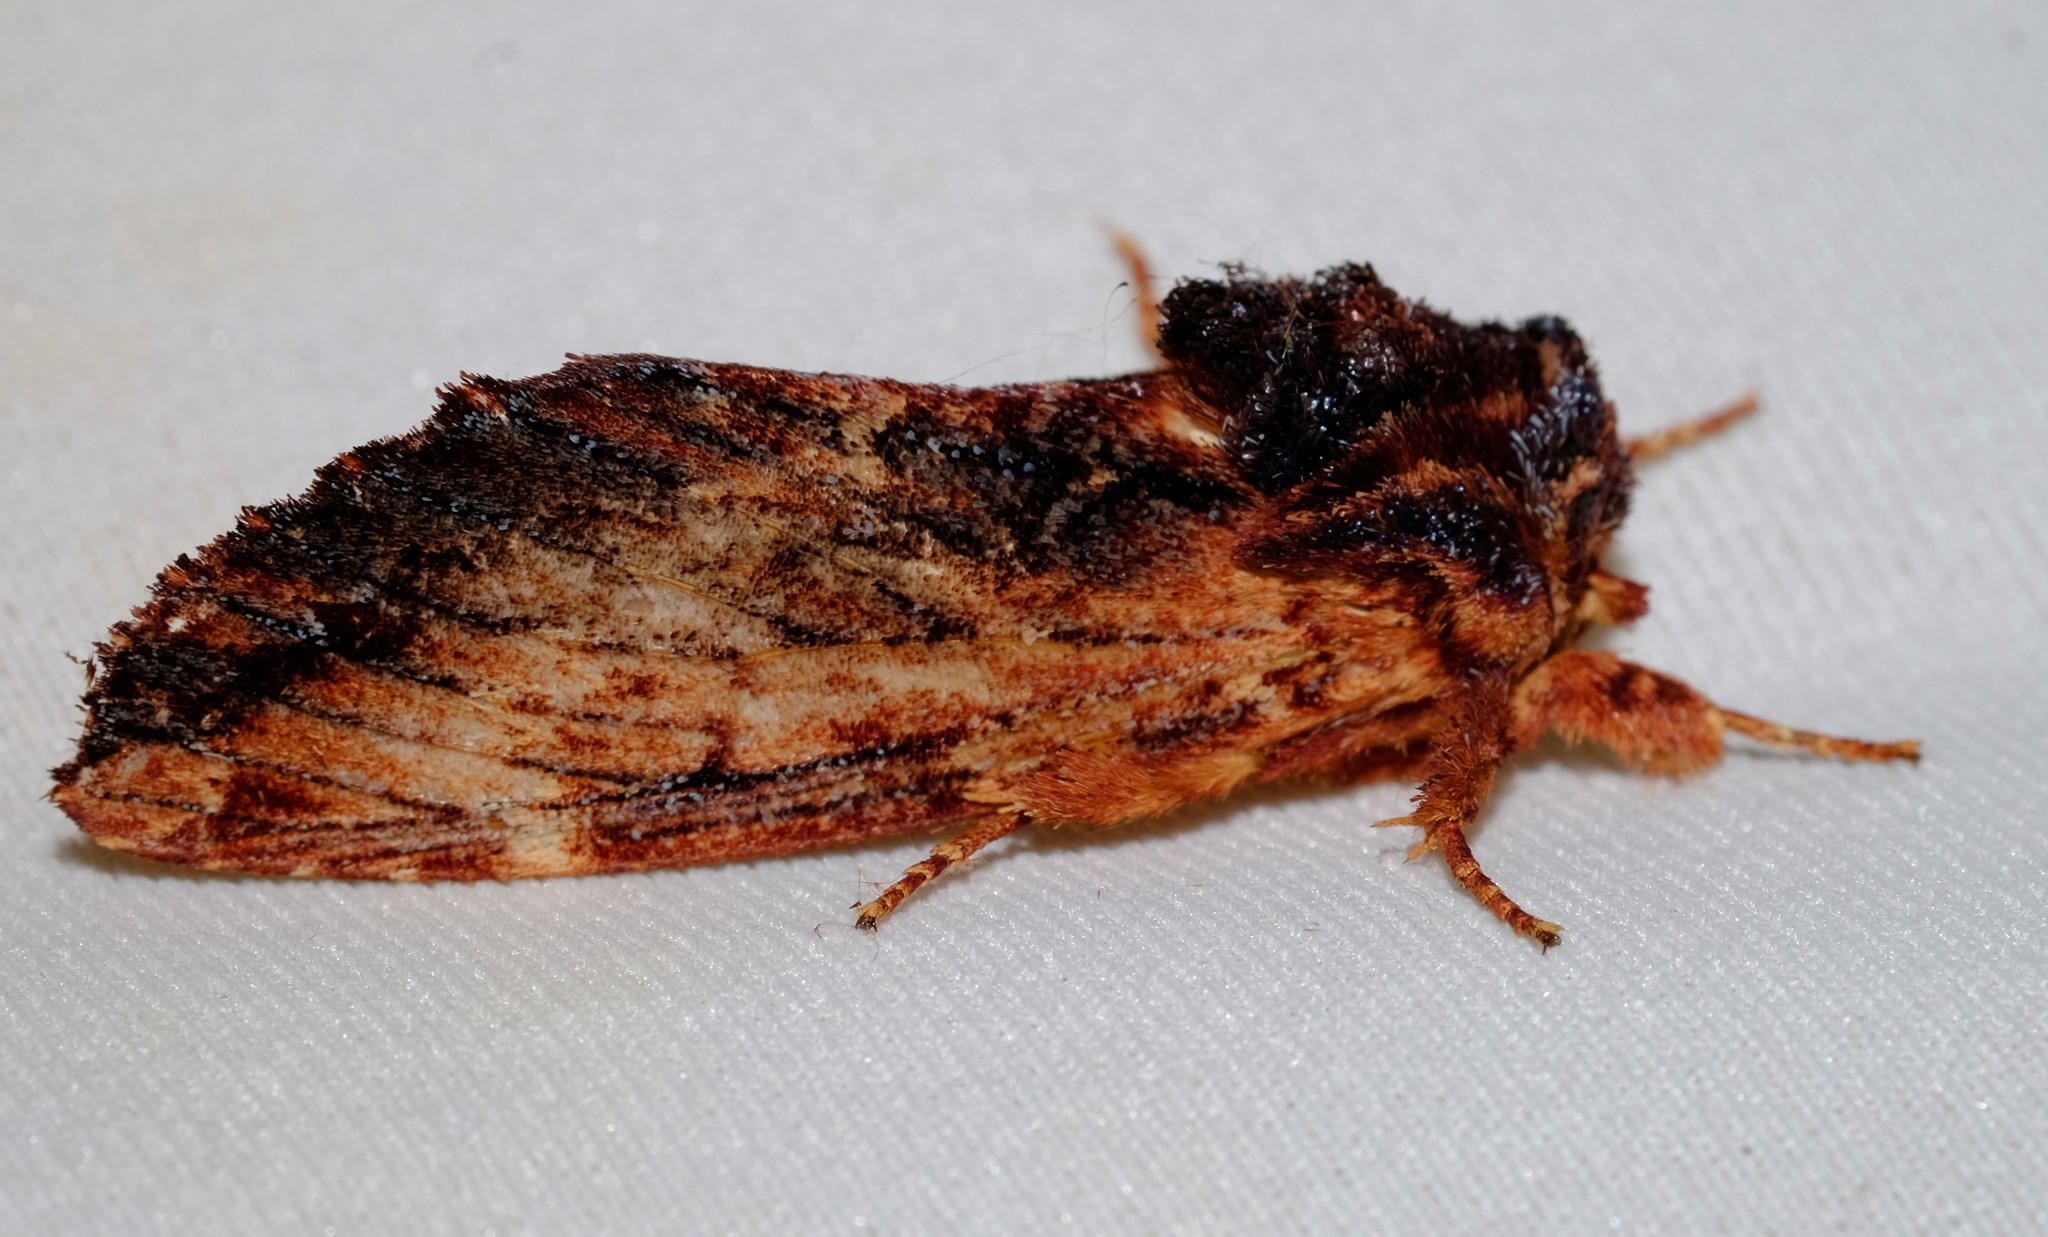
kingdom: Animalia
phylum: Arthropoda
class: Insecta
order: Lepidoptera
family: Notodontidae
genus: Sorama
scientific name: Sorama bicolor
